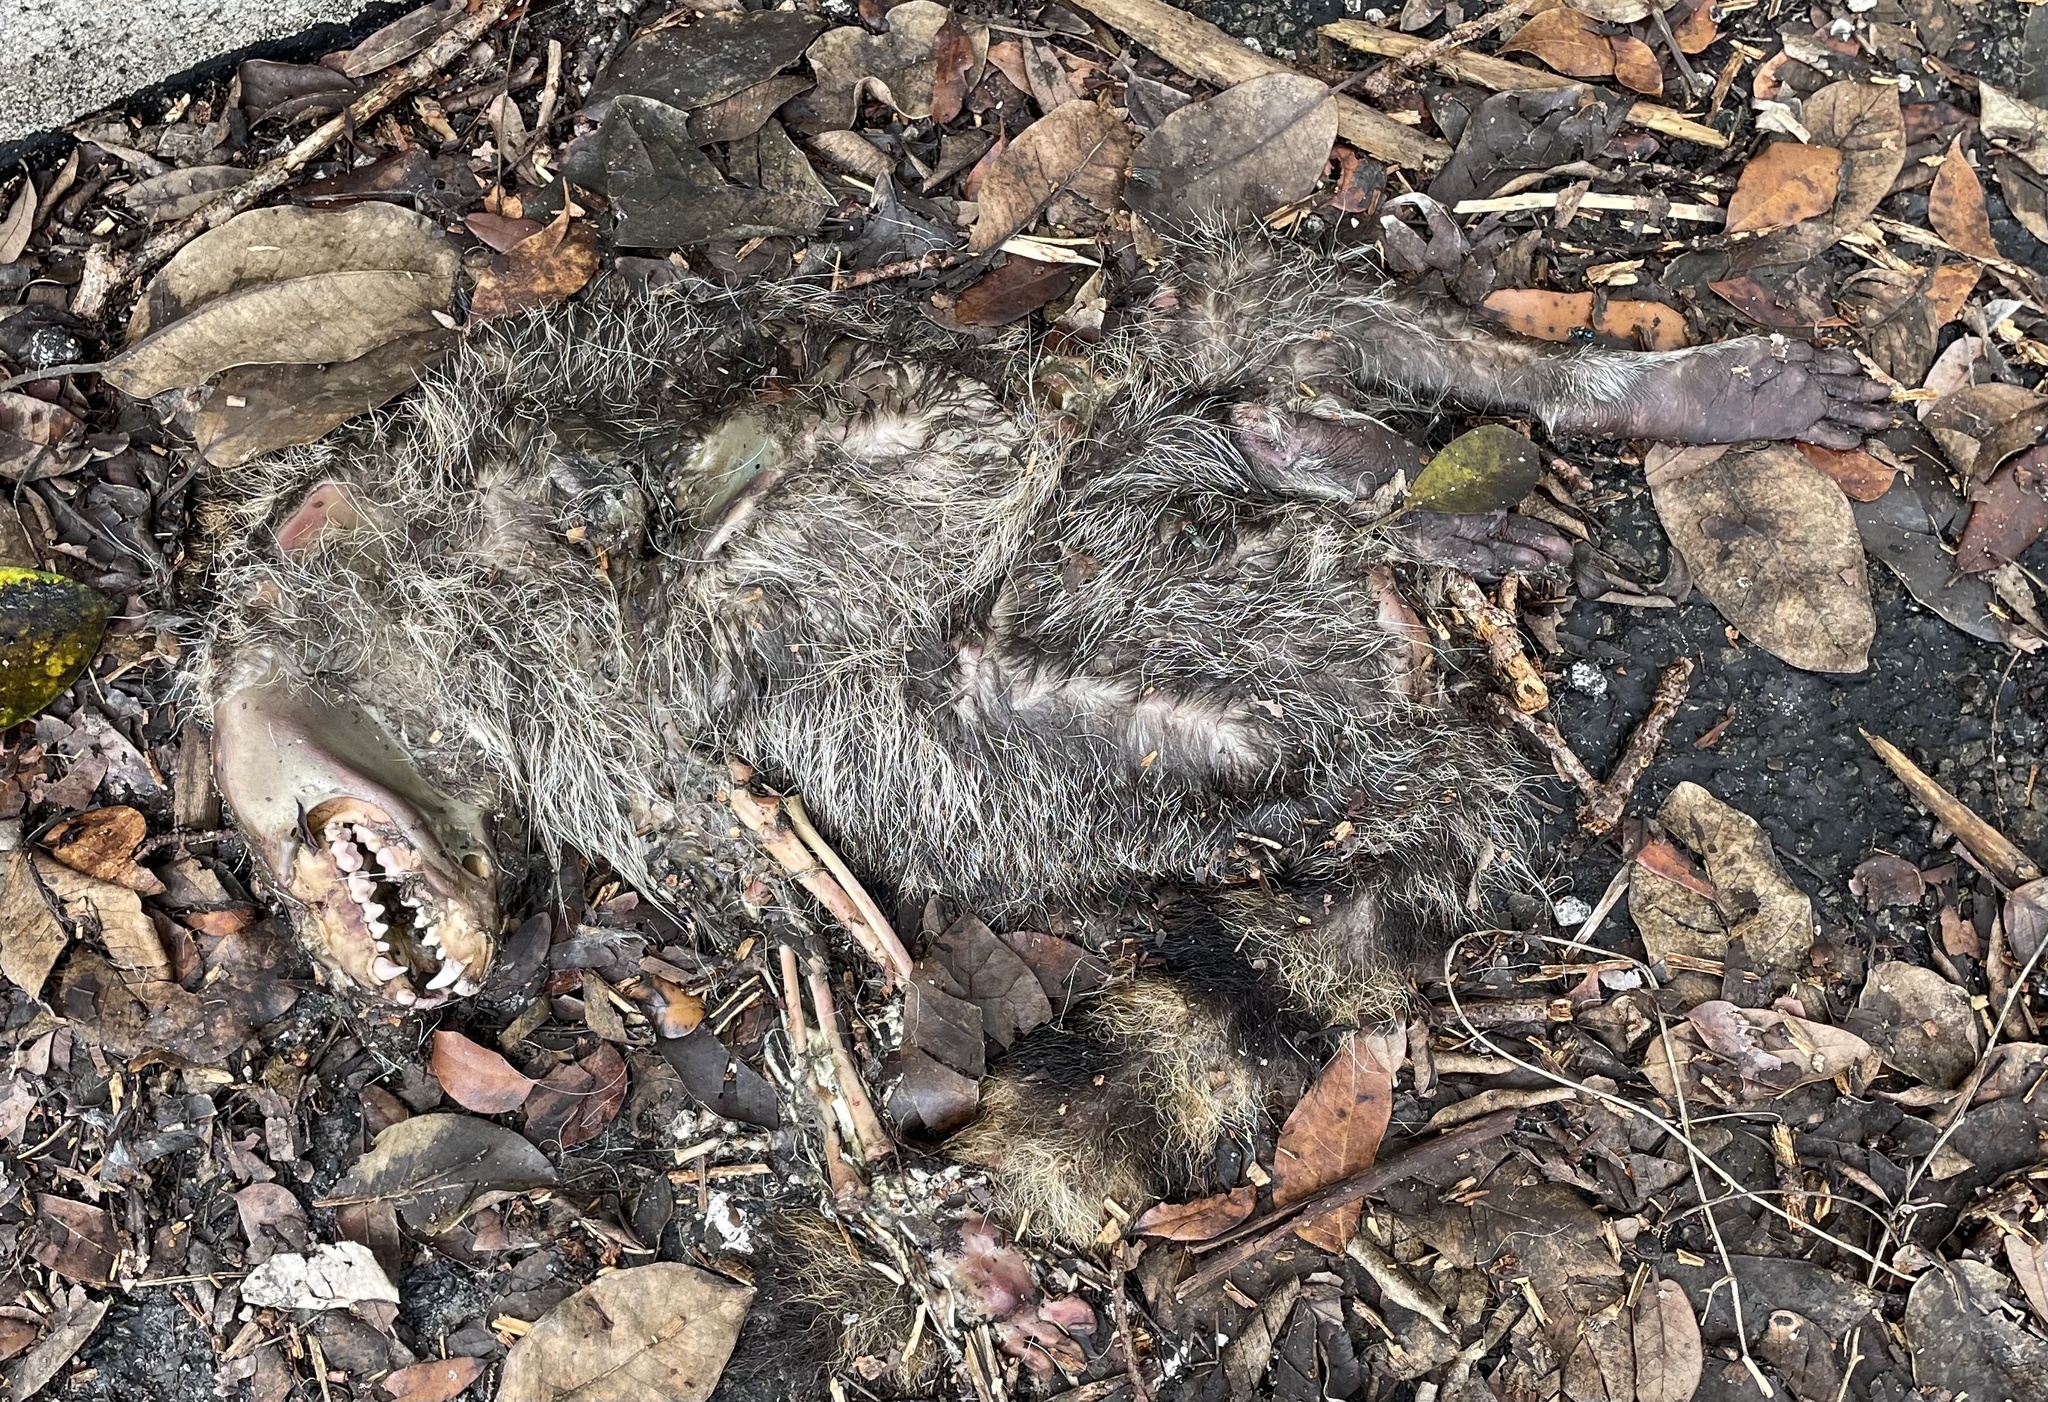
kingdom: Animalia
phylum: Chordata
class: Mammalia
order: Carnivora
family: Procyonidae
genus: Procyon
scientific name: Procyon lotor
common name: Raccoon
